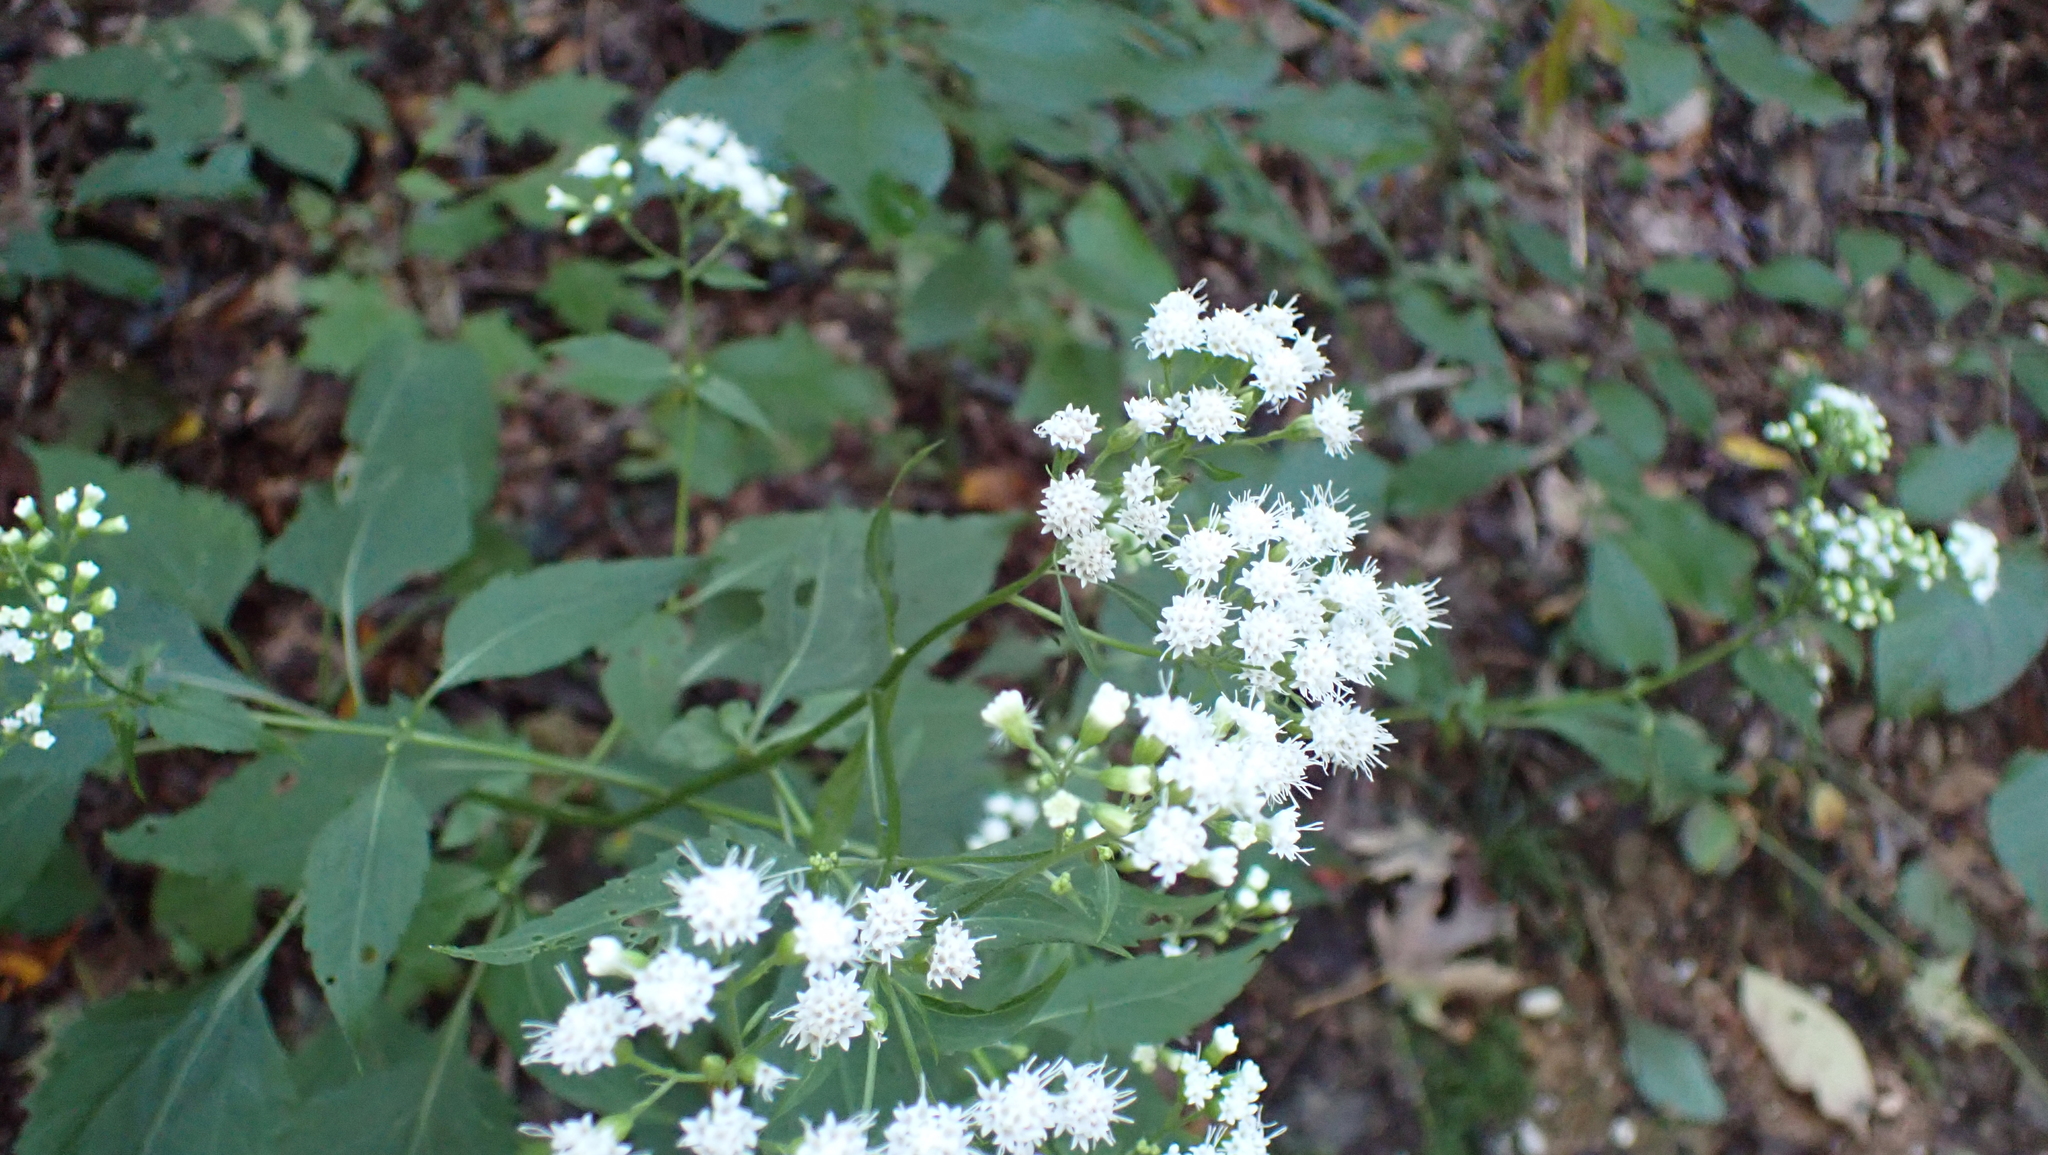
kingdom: Plantae
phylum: Tracheophyta
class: Magnoliopsida
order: Asterales
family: Asteraceae
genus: Ageratina
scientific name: Ageratina altissima
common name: White snakeroot
